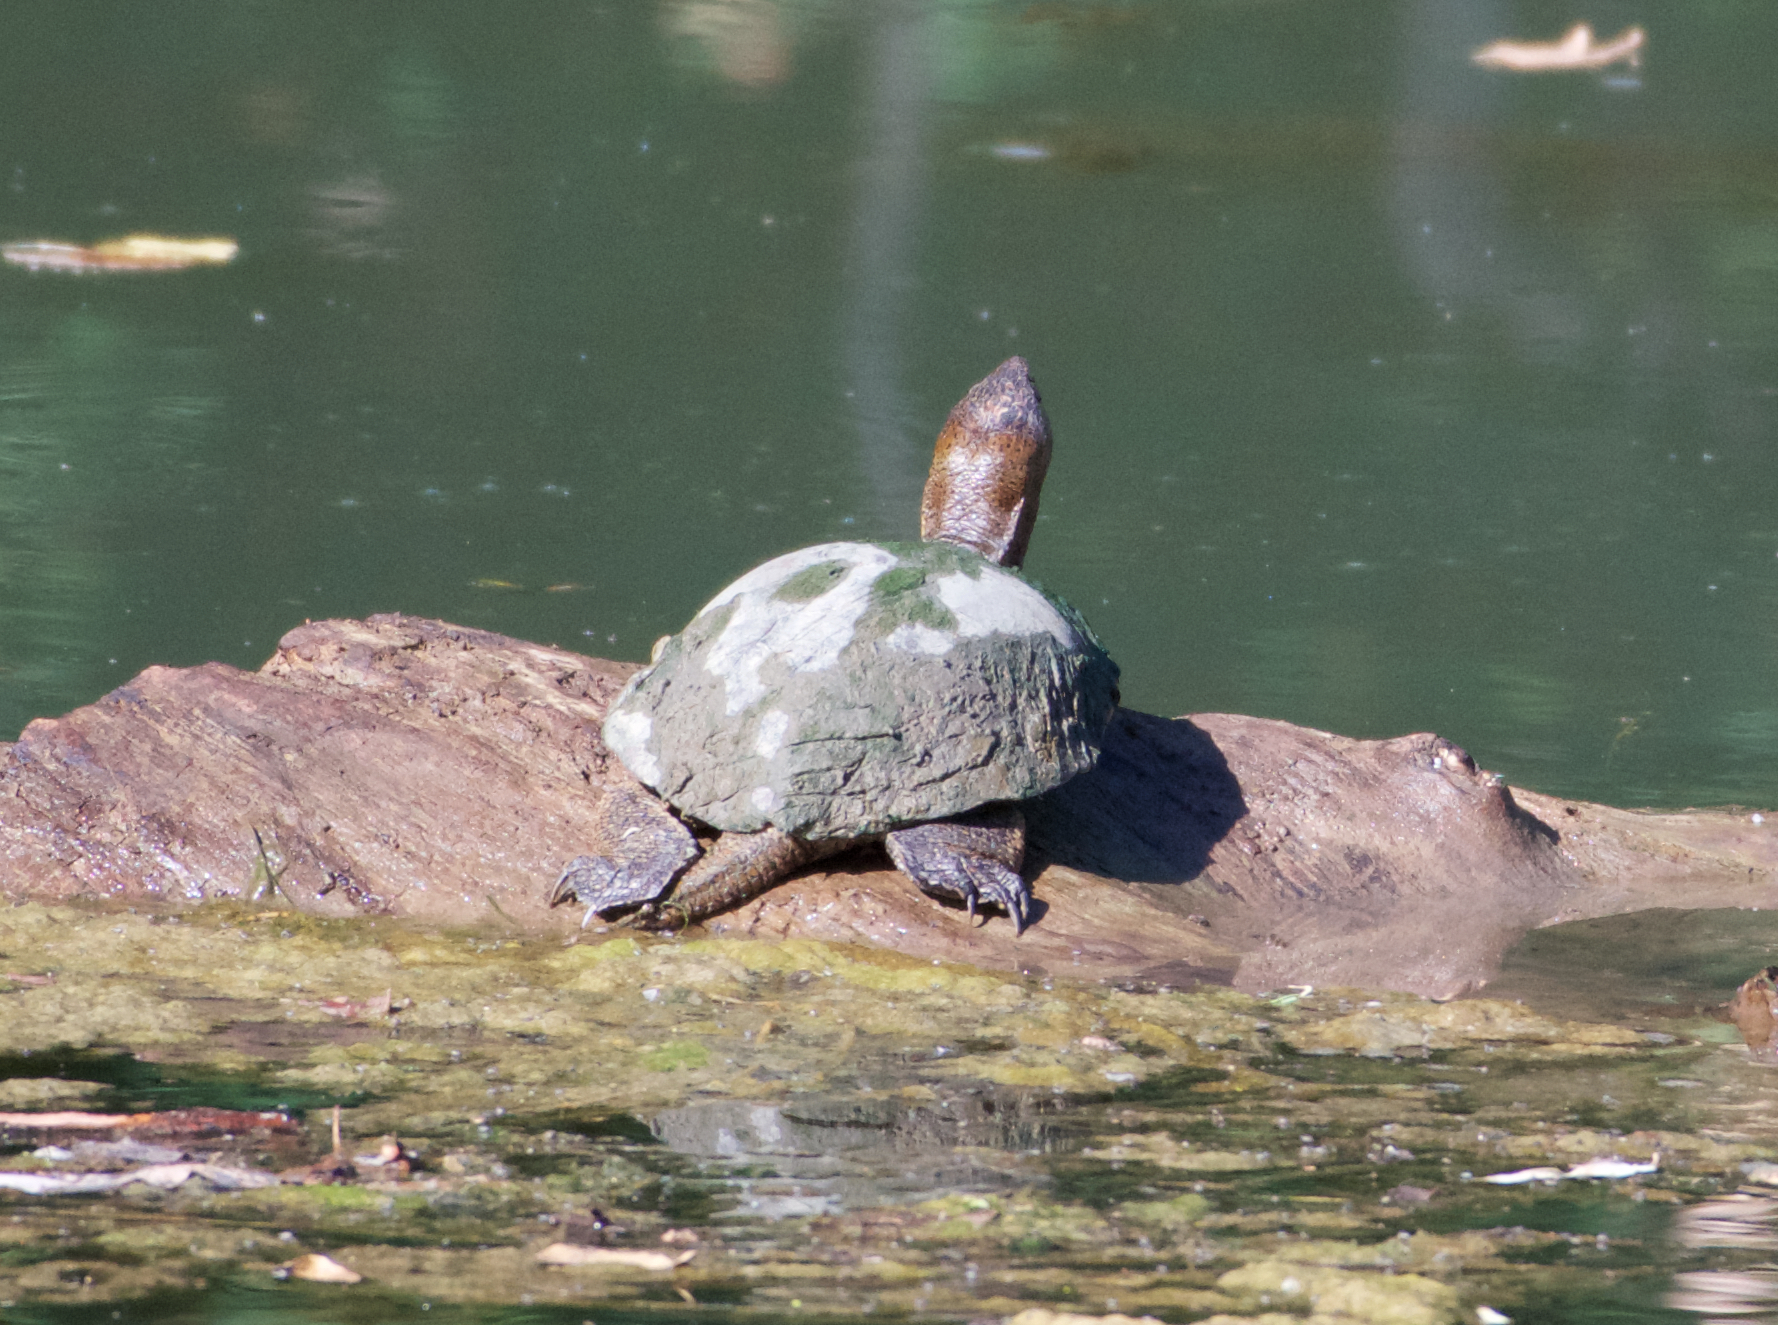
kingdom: Animalia
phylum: Chordata
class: Testudines
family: Emydidae
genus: Actinemys
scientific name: Actinemys marmorata
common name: Western pond turtle
